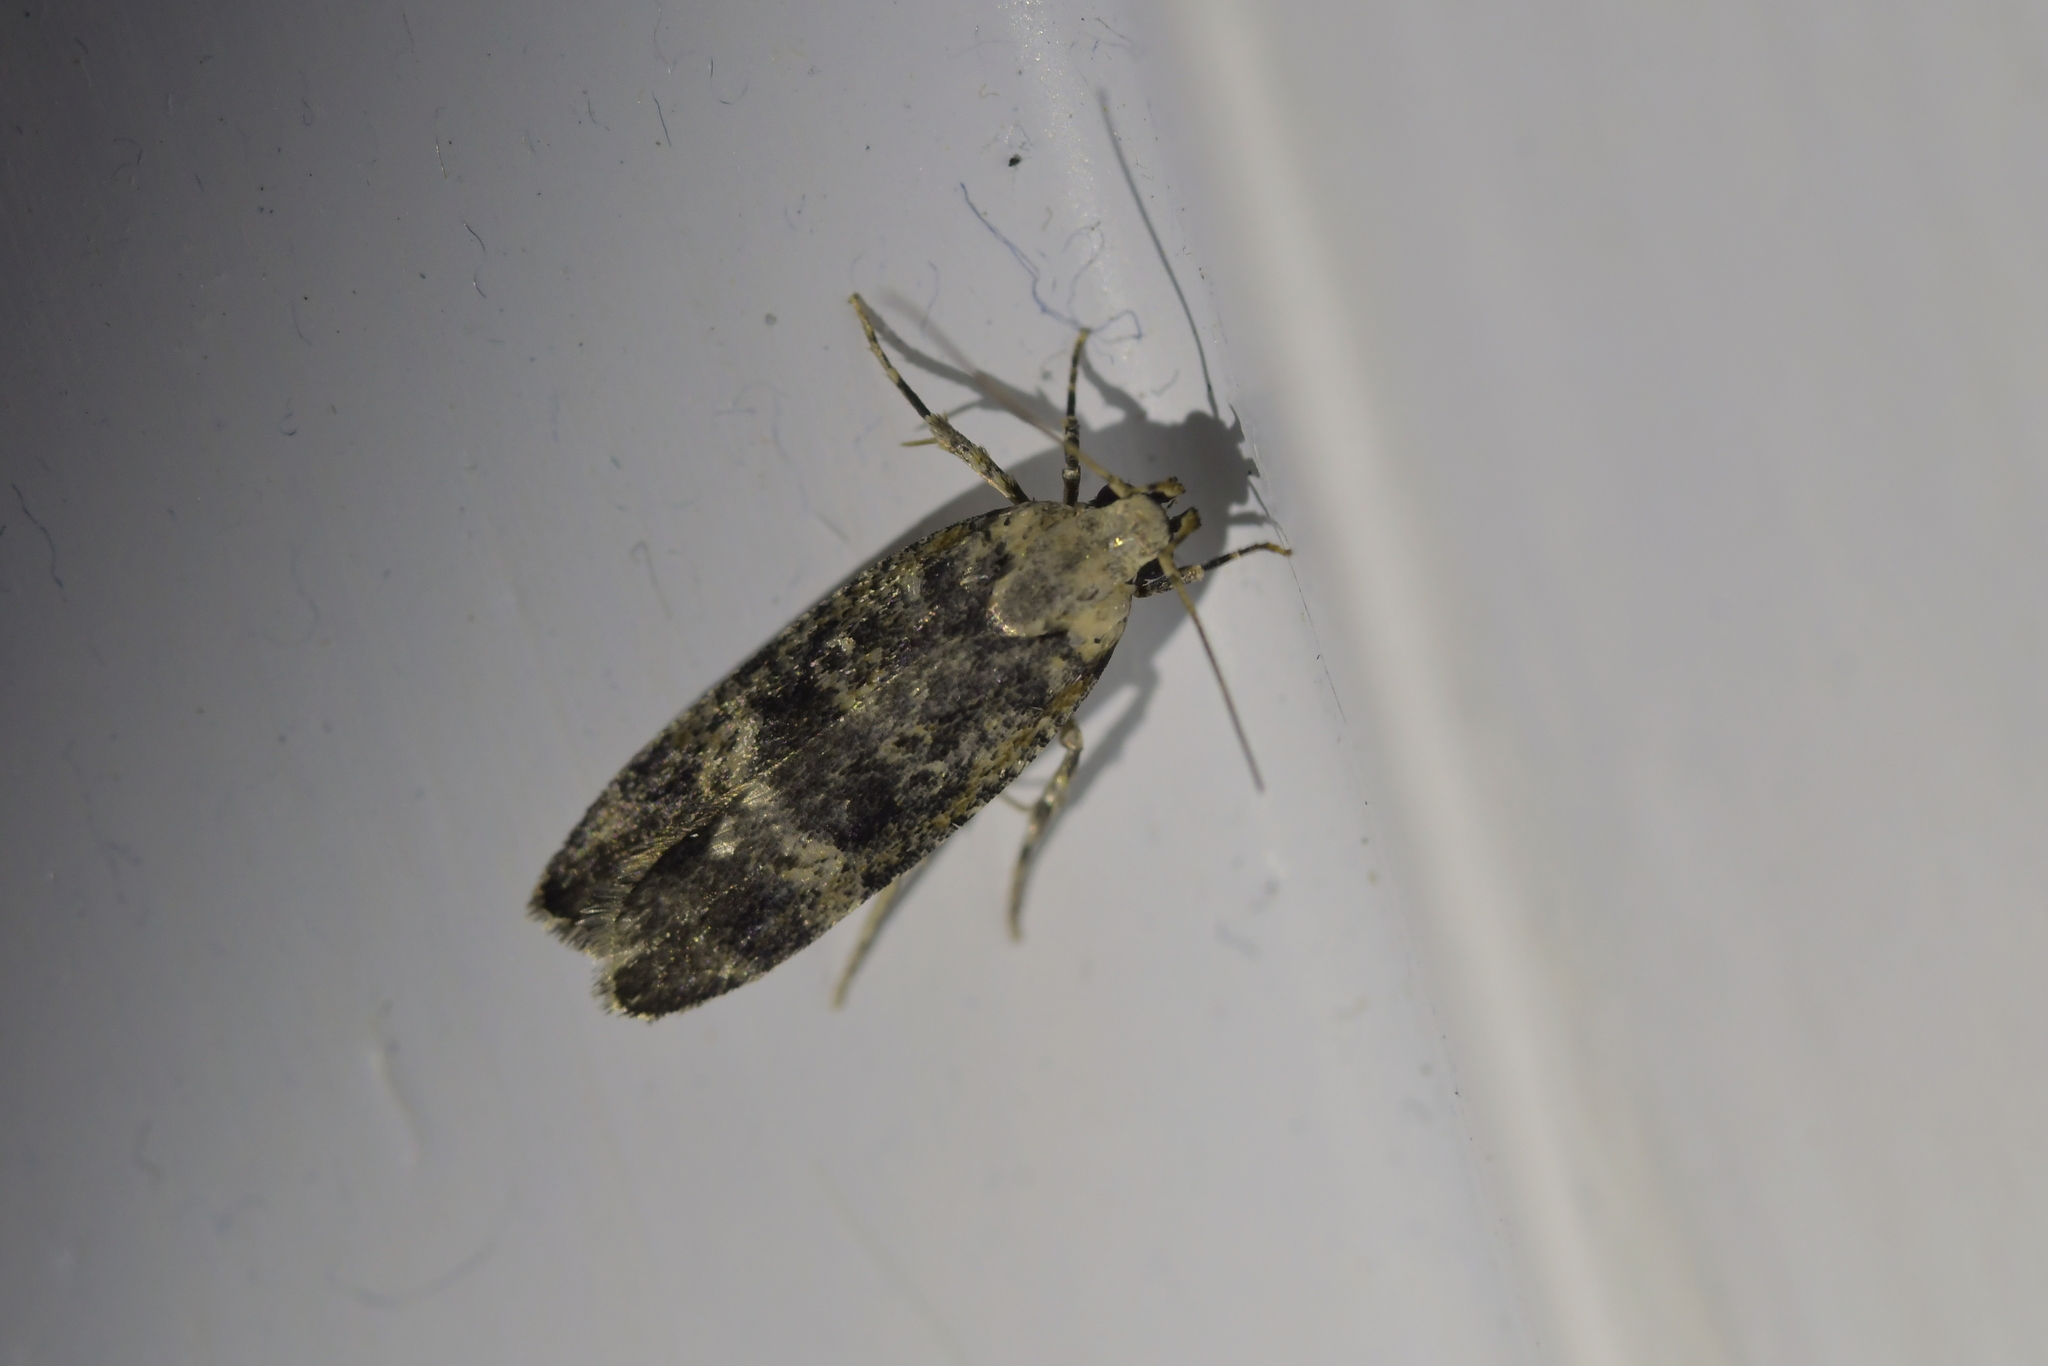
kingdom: Animalia
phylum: Arthropoda
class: Insecta
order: Lepidoptera
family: Gelechiidae
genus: Anisoplaca
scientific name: Anisoplaca cosmia
